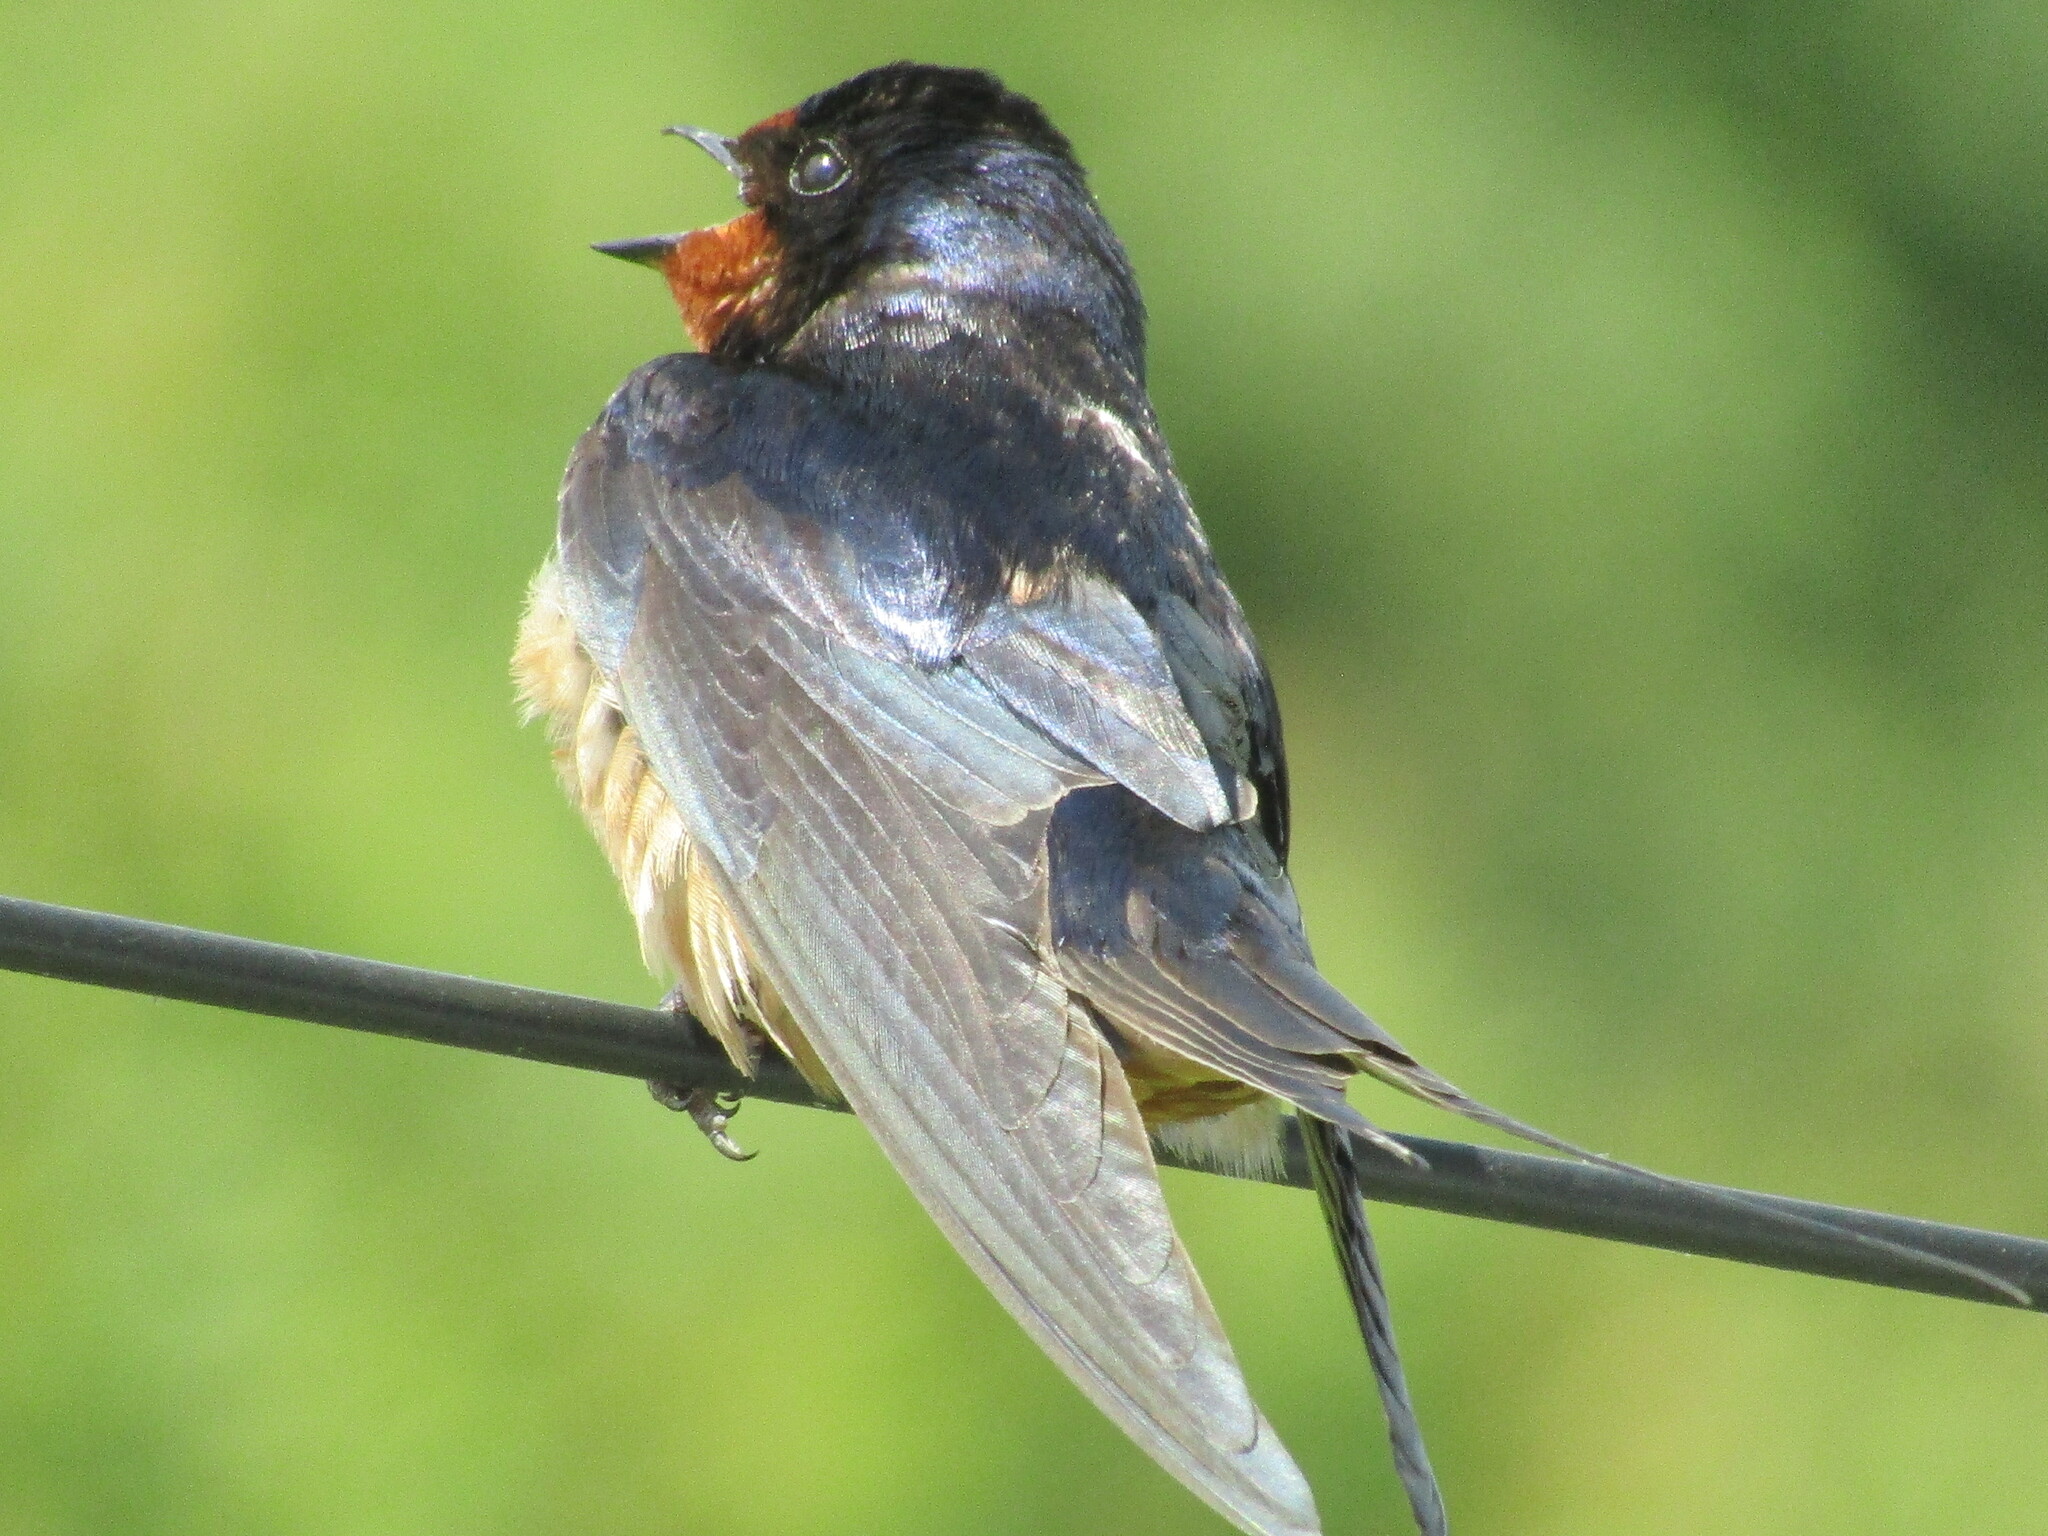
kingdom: Animalia
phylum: Chordata
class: Aves
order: Passeriformes
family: Hirundinidae
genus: Hirundo
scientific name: Hirundo rustica
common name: Barn swallow
